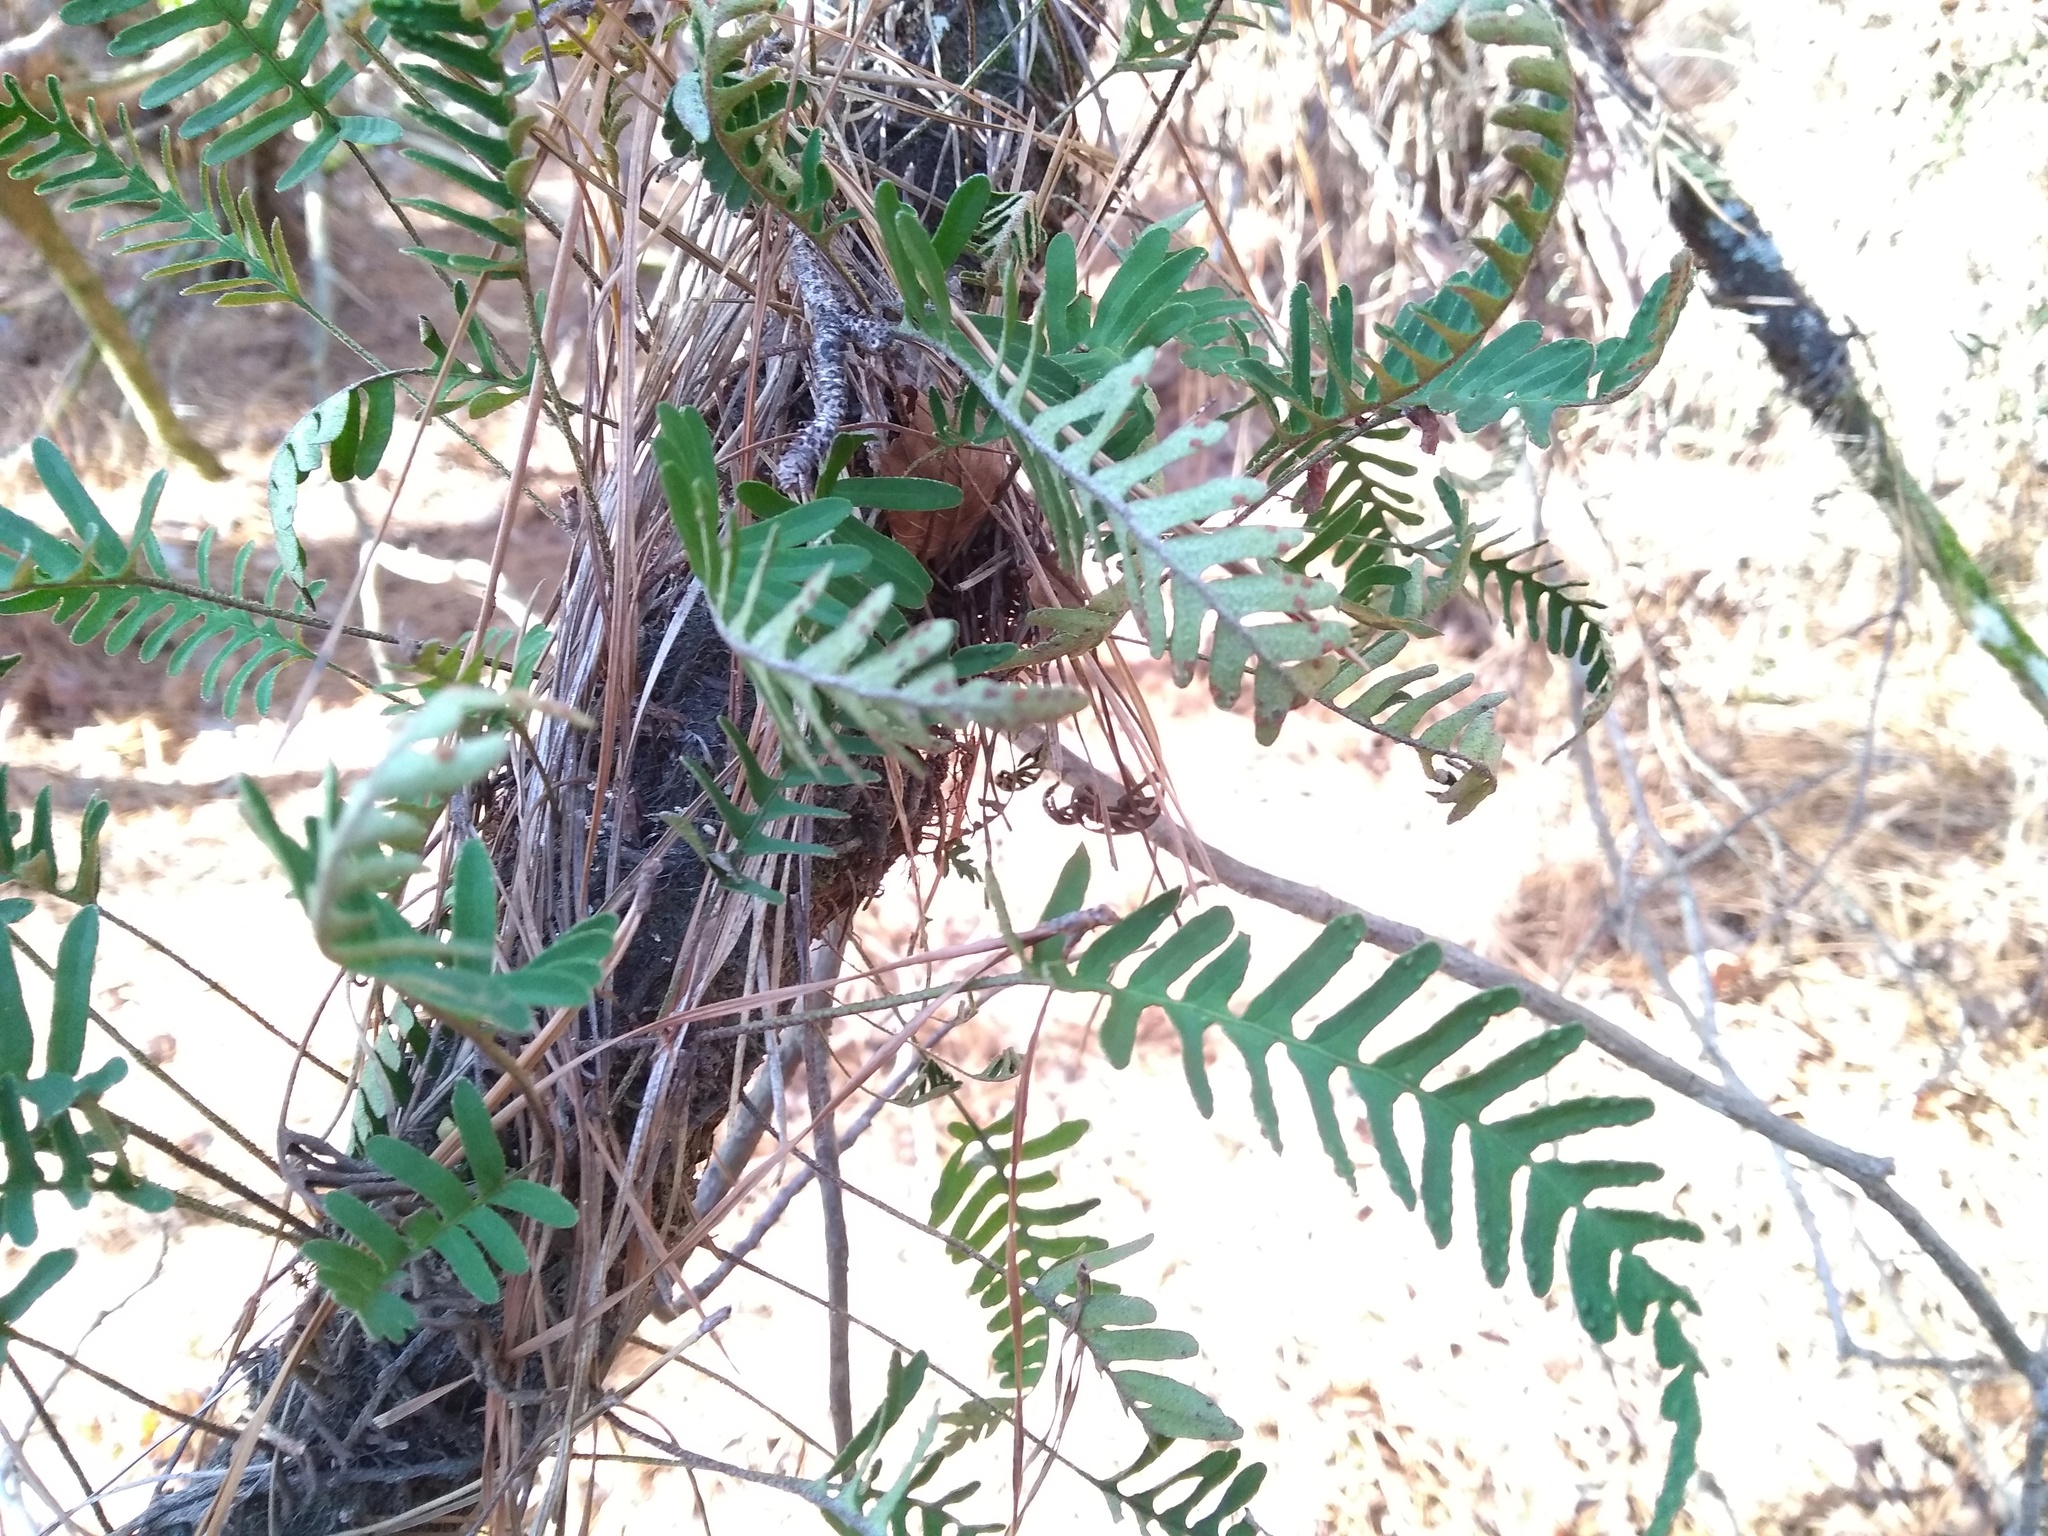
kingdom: Plantae
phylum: Tracheophyta
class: Polypodiopsida
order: Polypodiales
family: Polypodiaceae
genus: Pleopeltis
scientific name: Pleopeltis michauxiana
